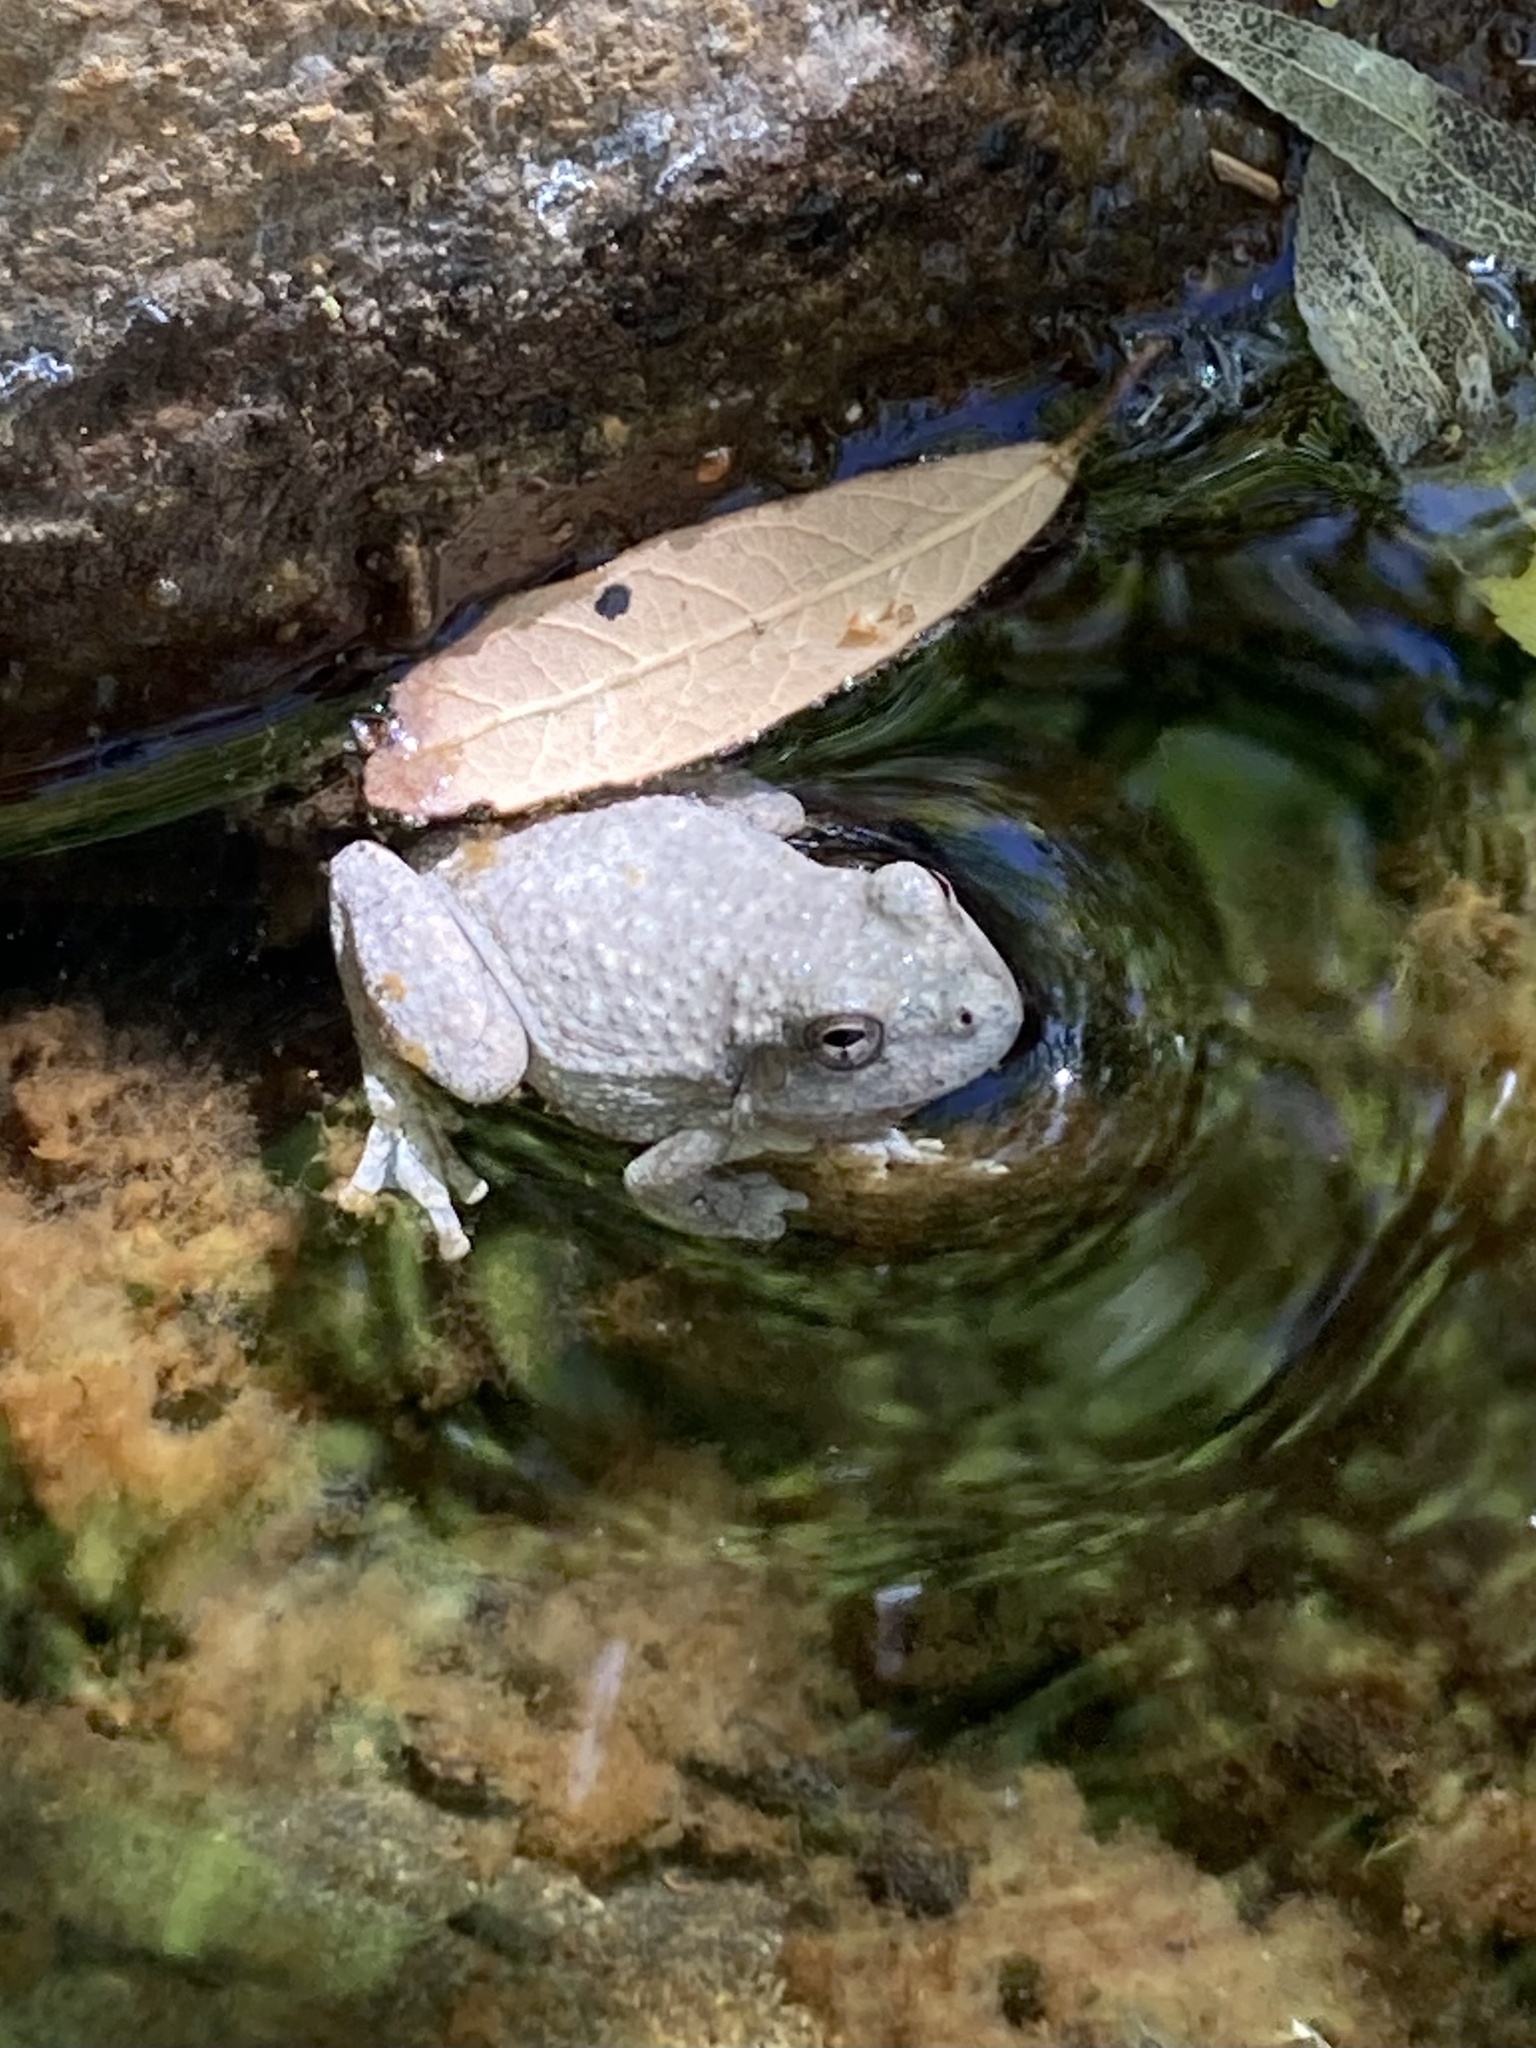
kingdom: Animalia
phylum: Chordata
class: Amphibia
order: Anura
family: Hylidae
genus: Dryophytes
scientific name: Dryophytes arenicolor
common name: Canyon treefrog
